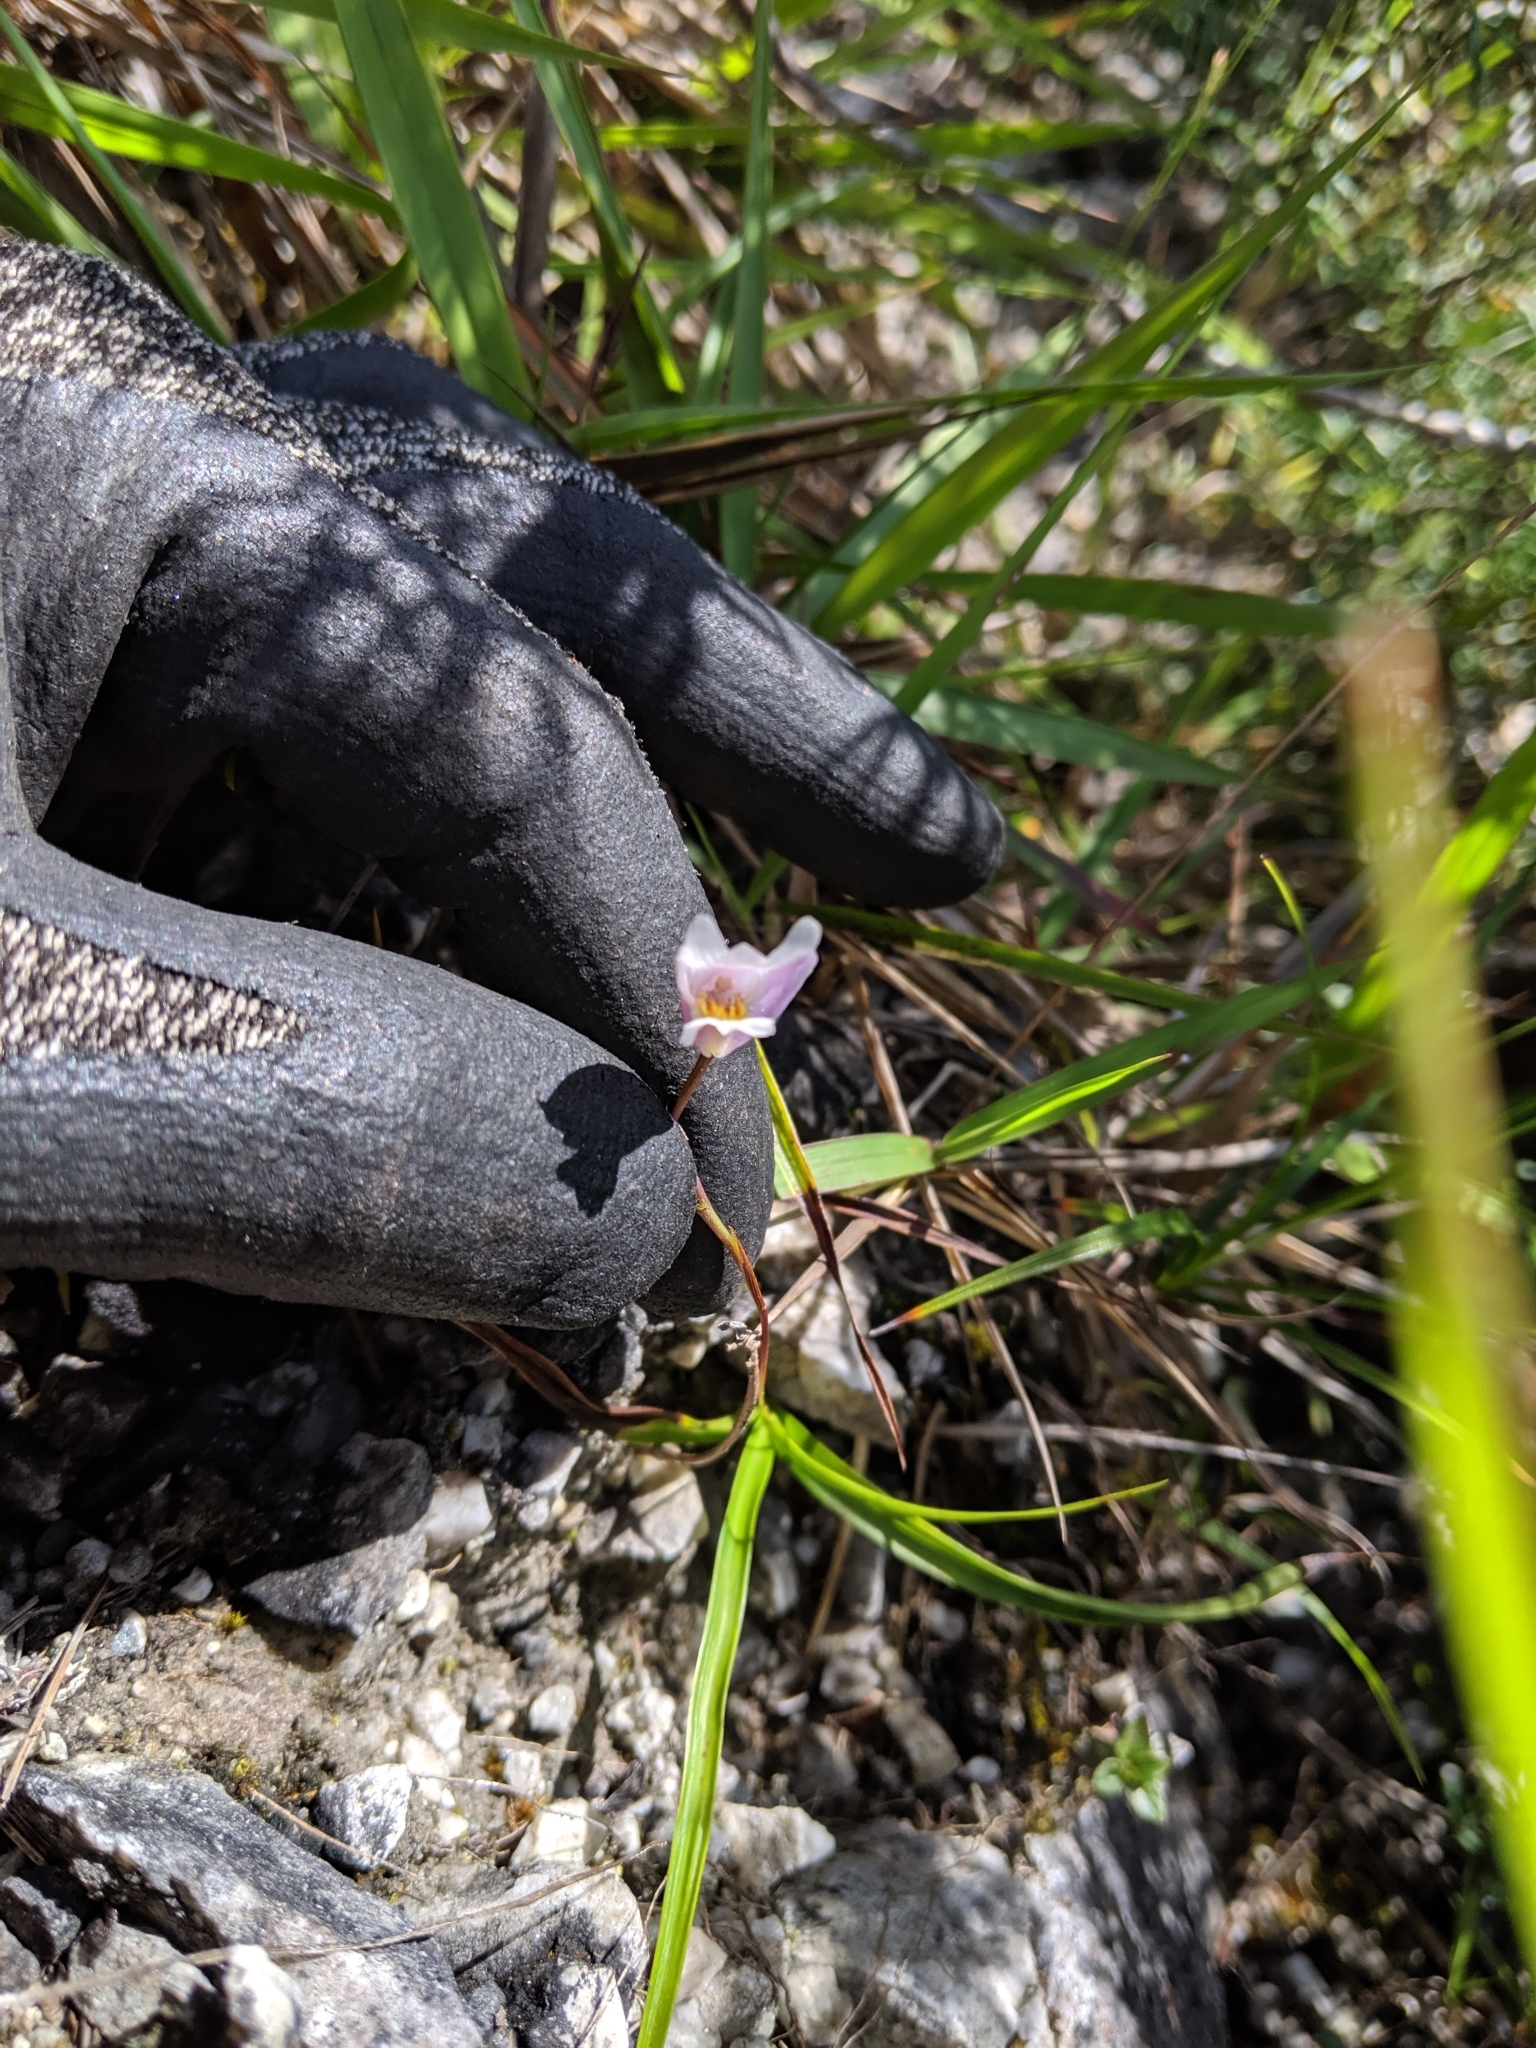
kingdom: Plantae
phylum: Tracheophyta
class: Liliopsida
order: Asparagales
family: Orchidaceae
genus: Bletilla
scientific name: Bletilla formosana
